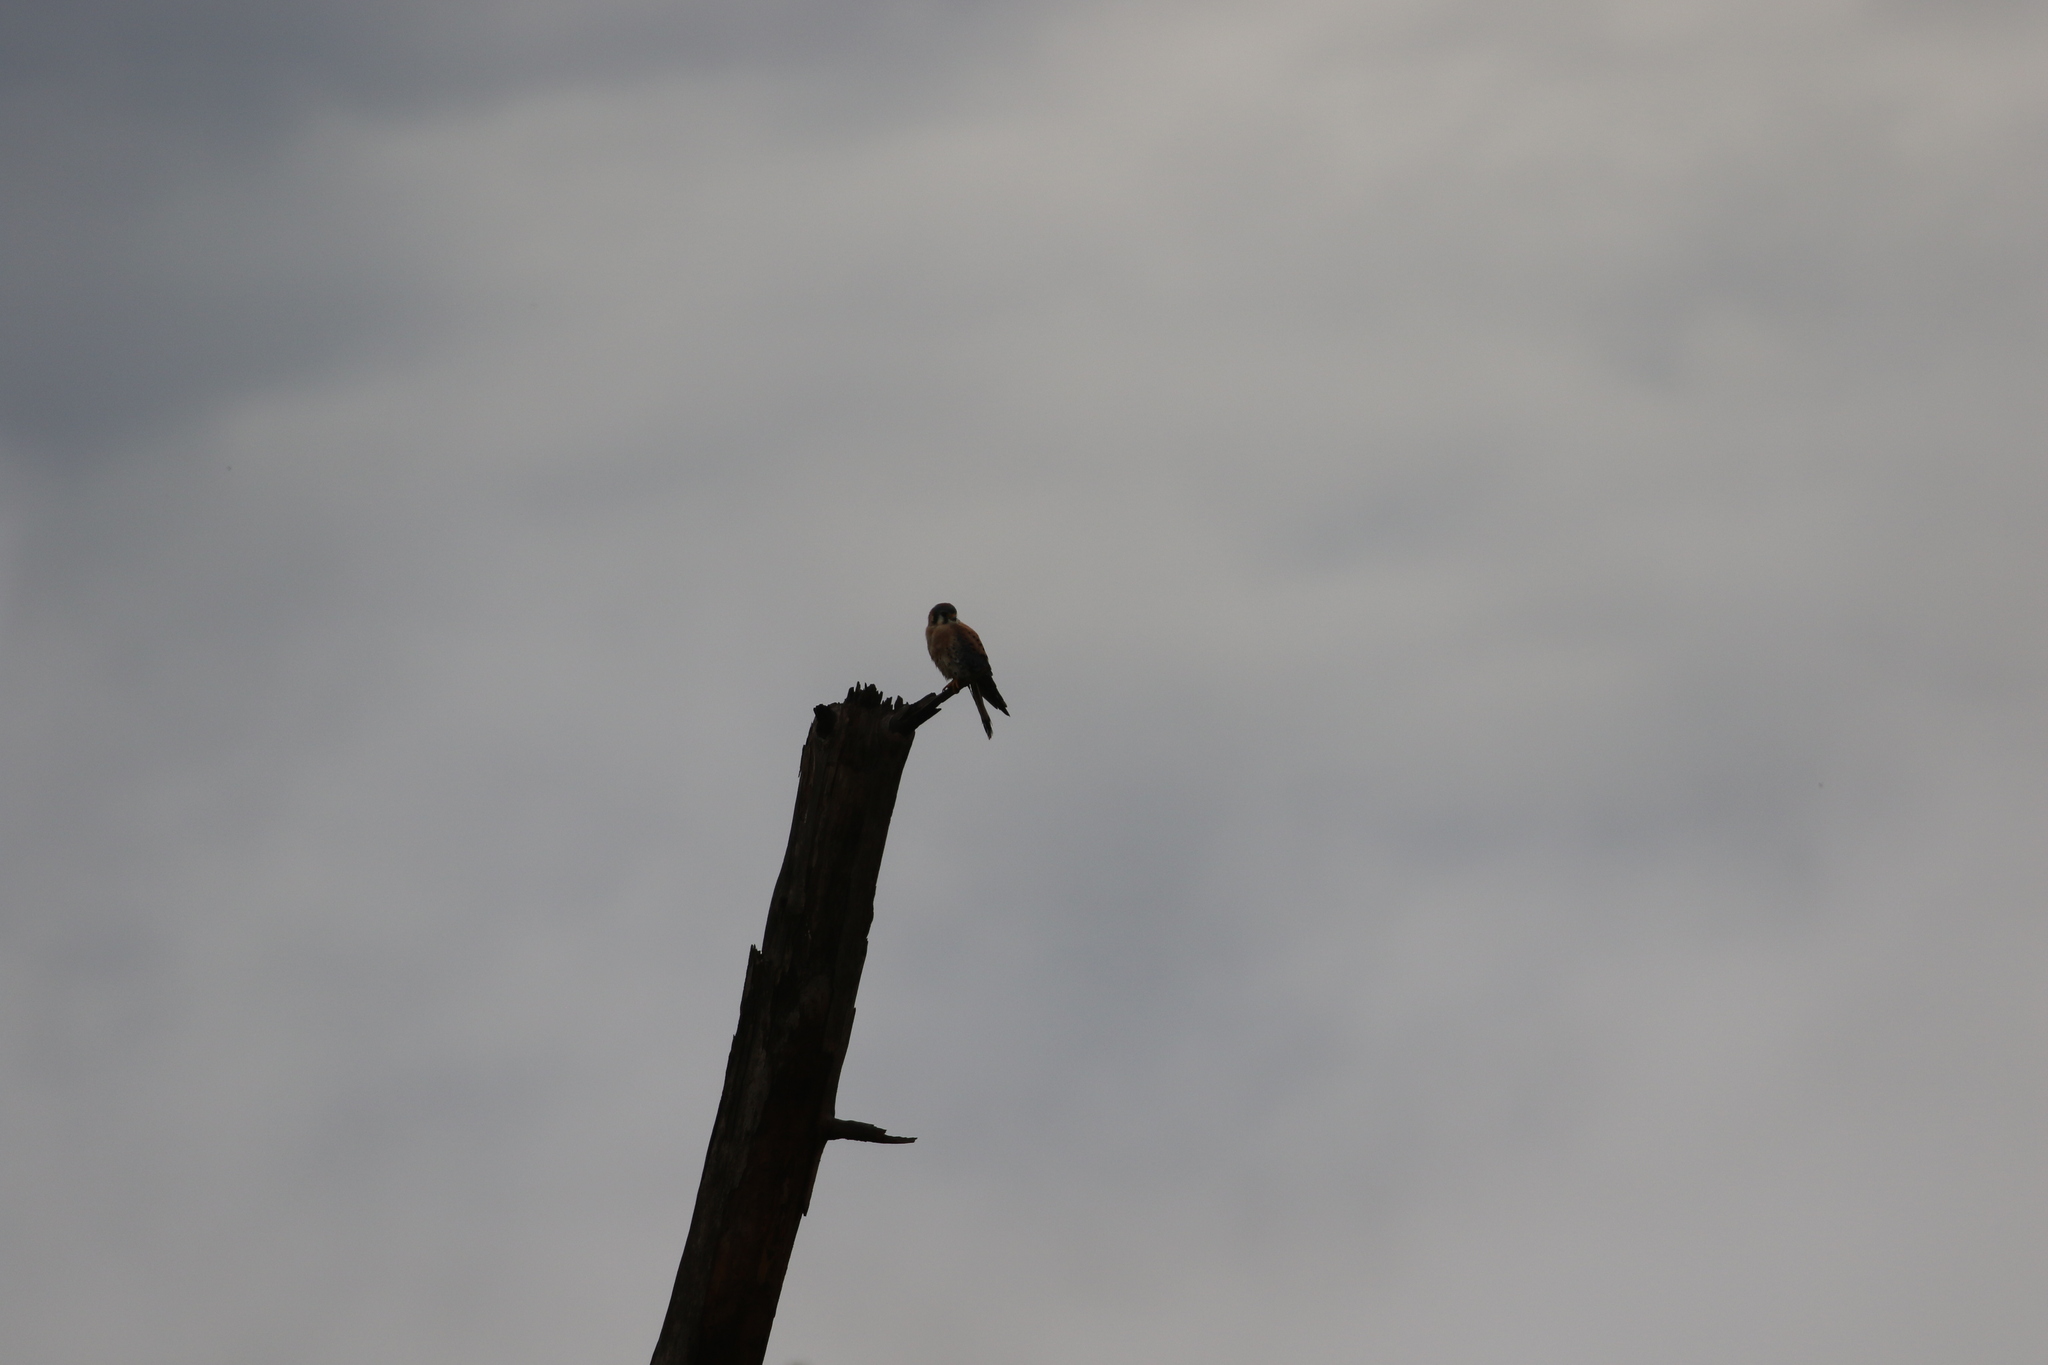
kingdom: Animalia
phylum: Chordata
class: Aves
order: Falconiformes
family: Falconidae
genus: Falco
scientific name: Falco sparverius
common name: American kestrel
